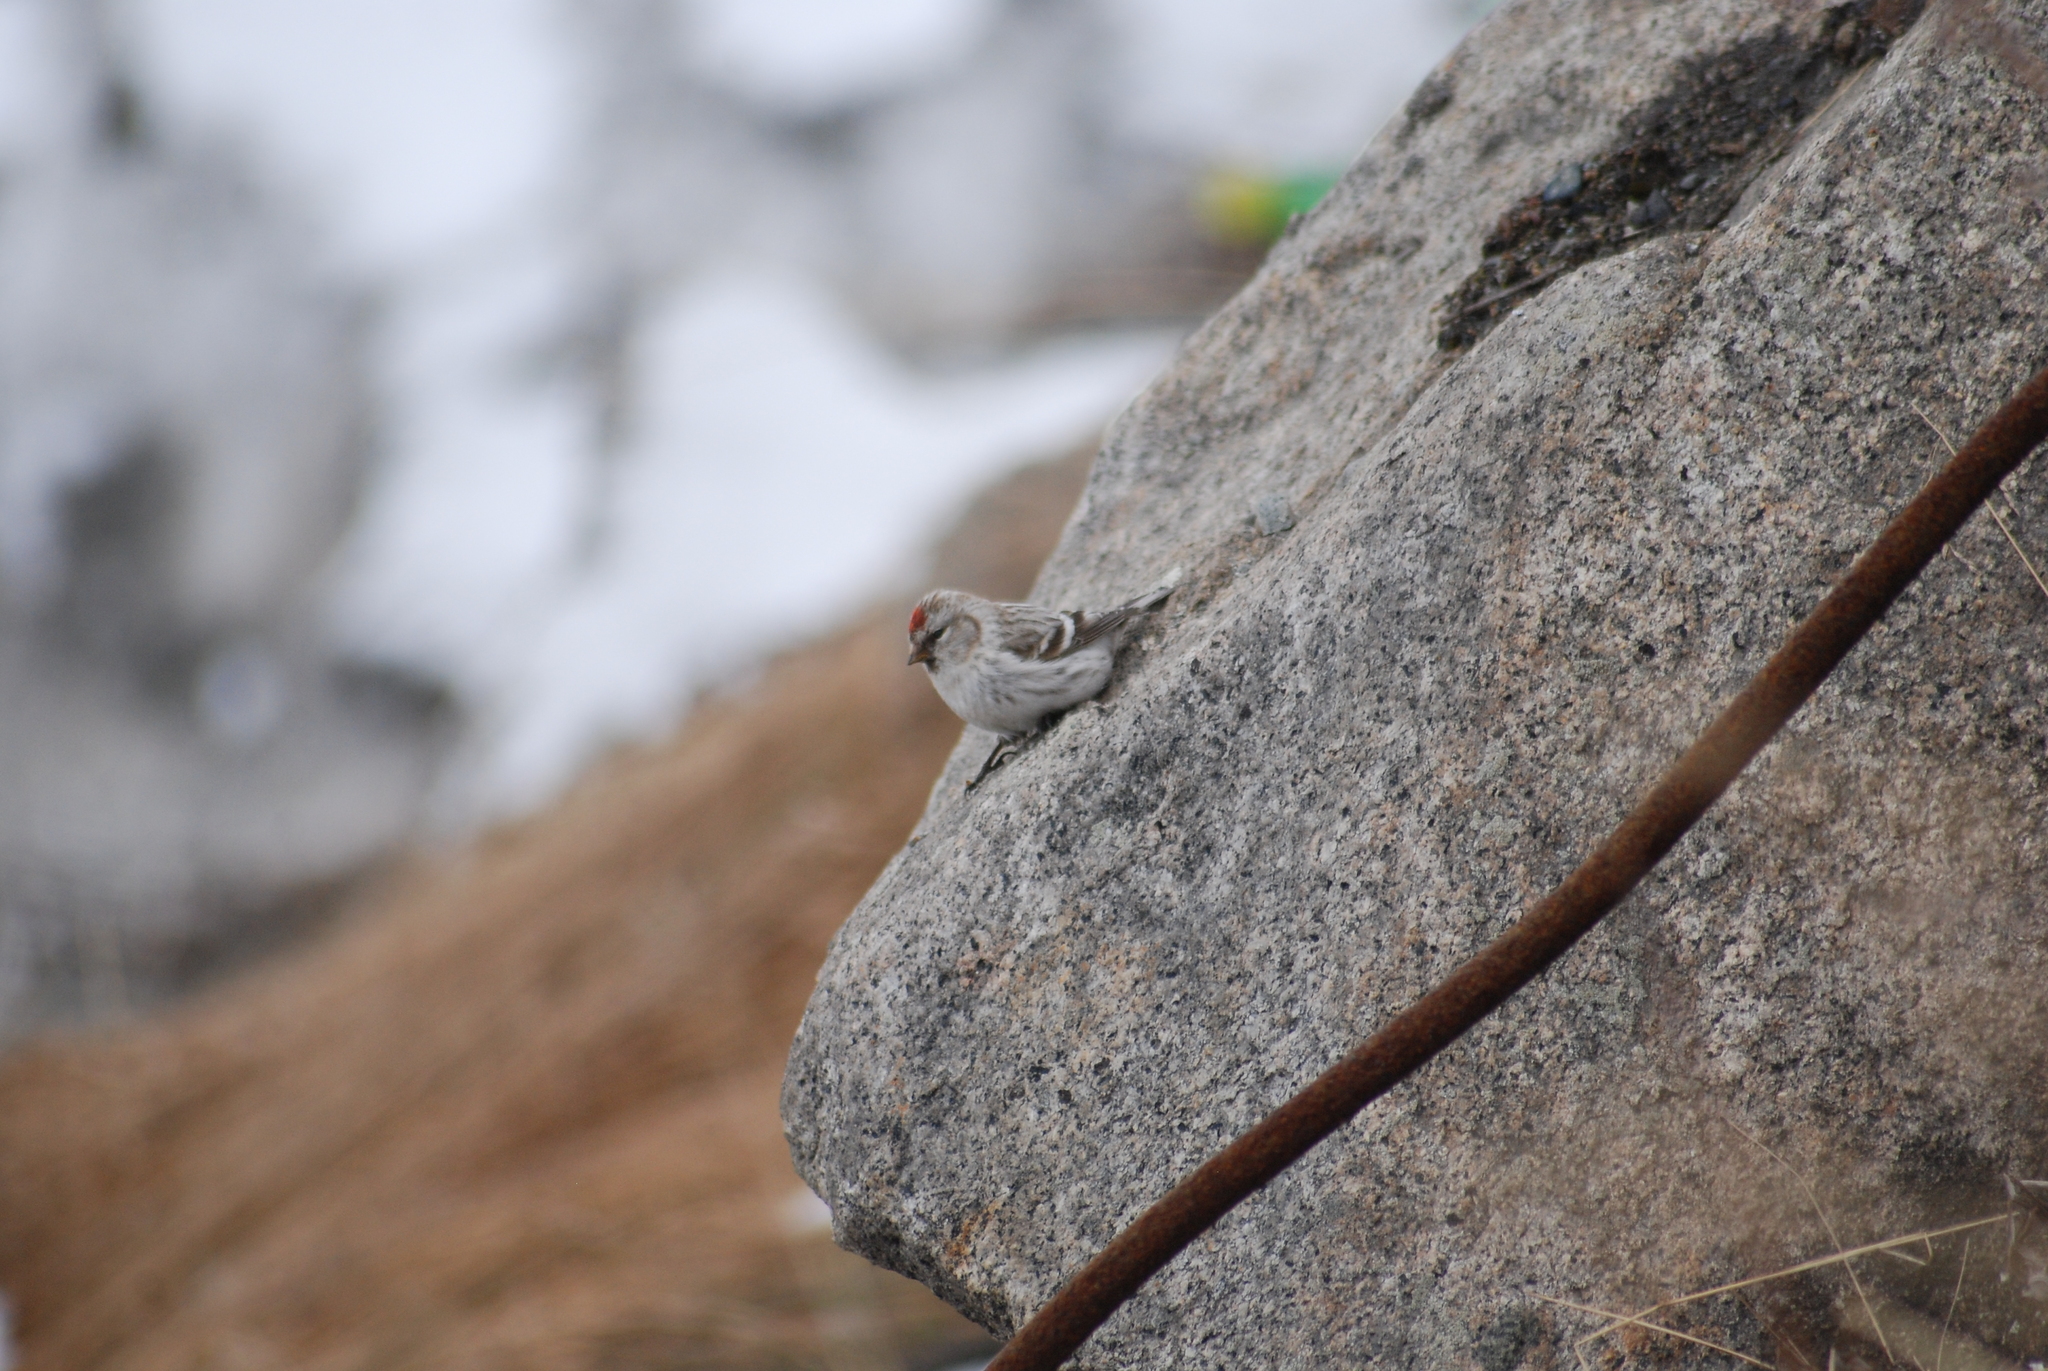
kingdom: Animalia
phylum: Chordata
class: Aves
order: Passeriformes
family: Fringillidae
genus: Acanthis
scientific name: Acanthis hornemanni
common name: Arctic redpoll
